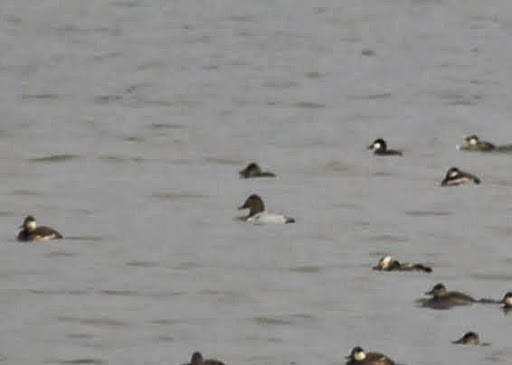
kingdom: Animalia
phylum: Chordata
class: Aves
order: Anseriformes
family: Anatidae
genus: Aythya
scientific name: Aythya valisineria
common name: Canvasback
